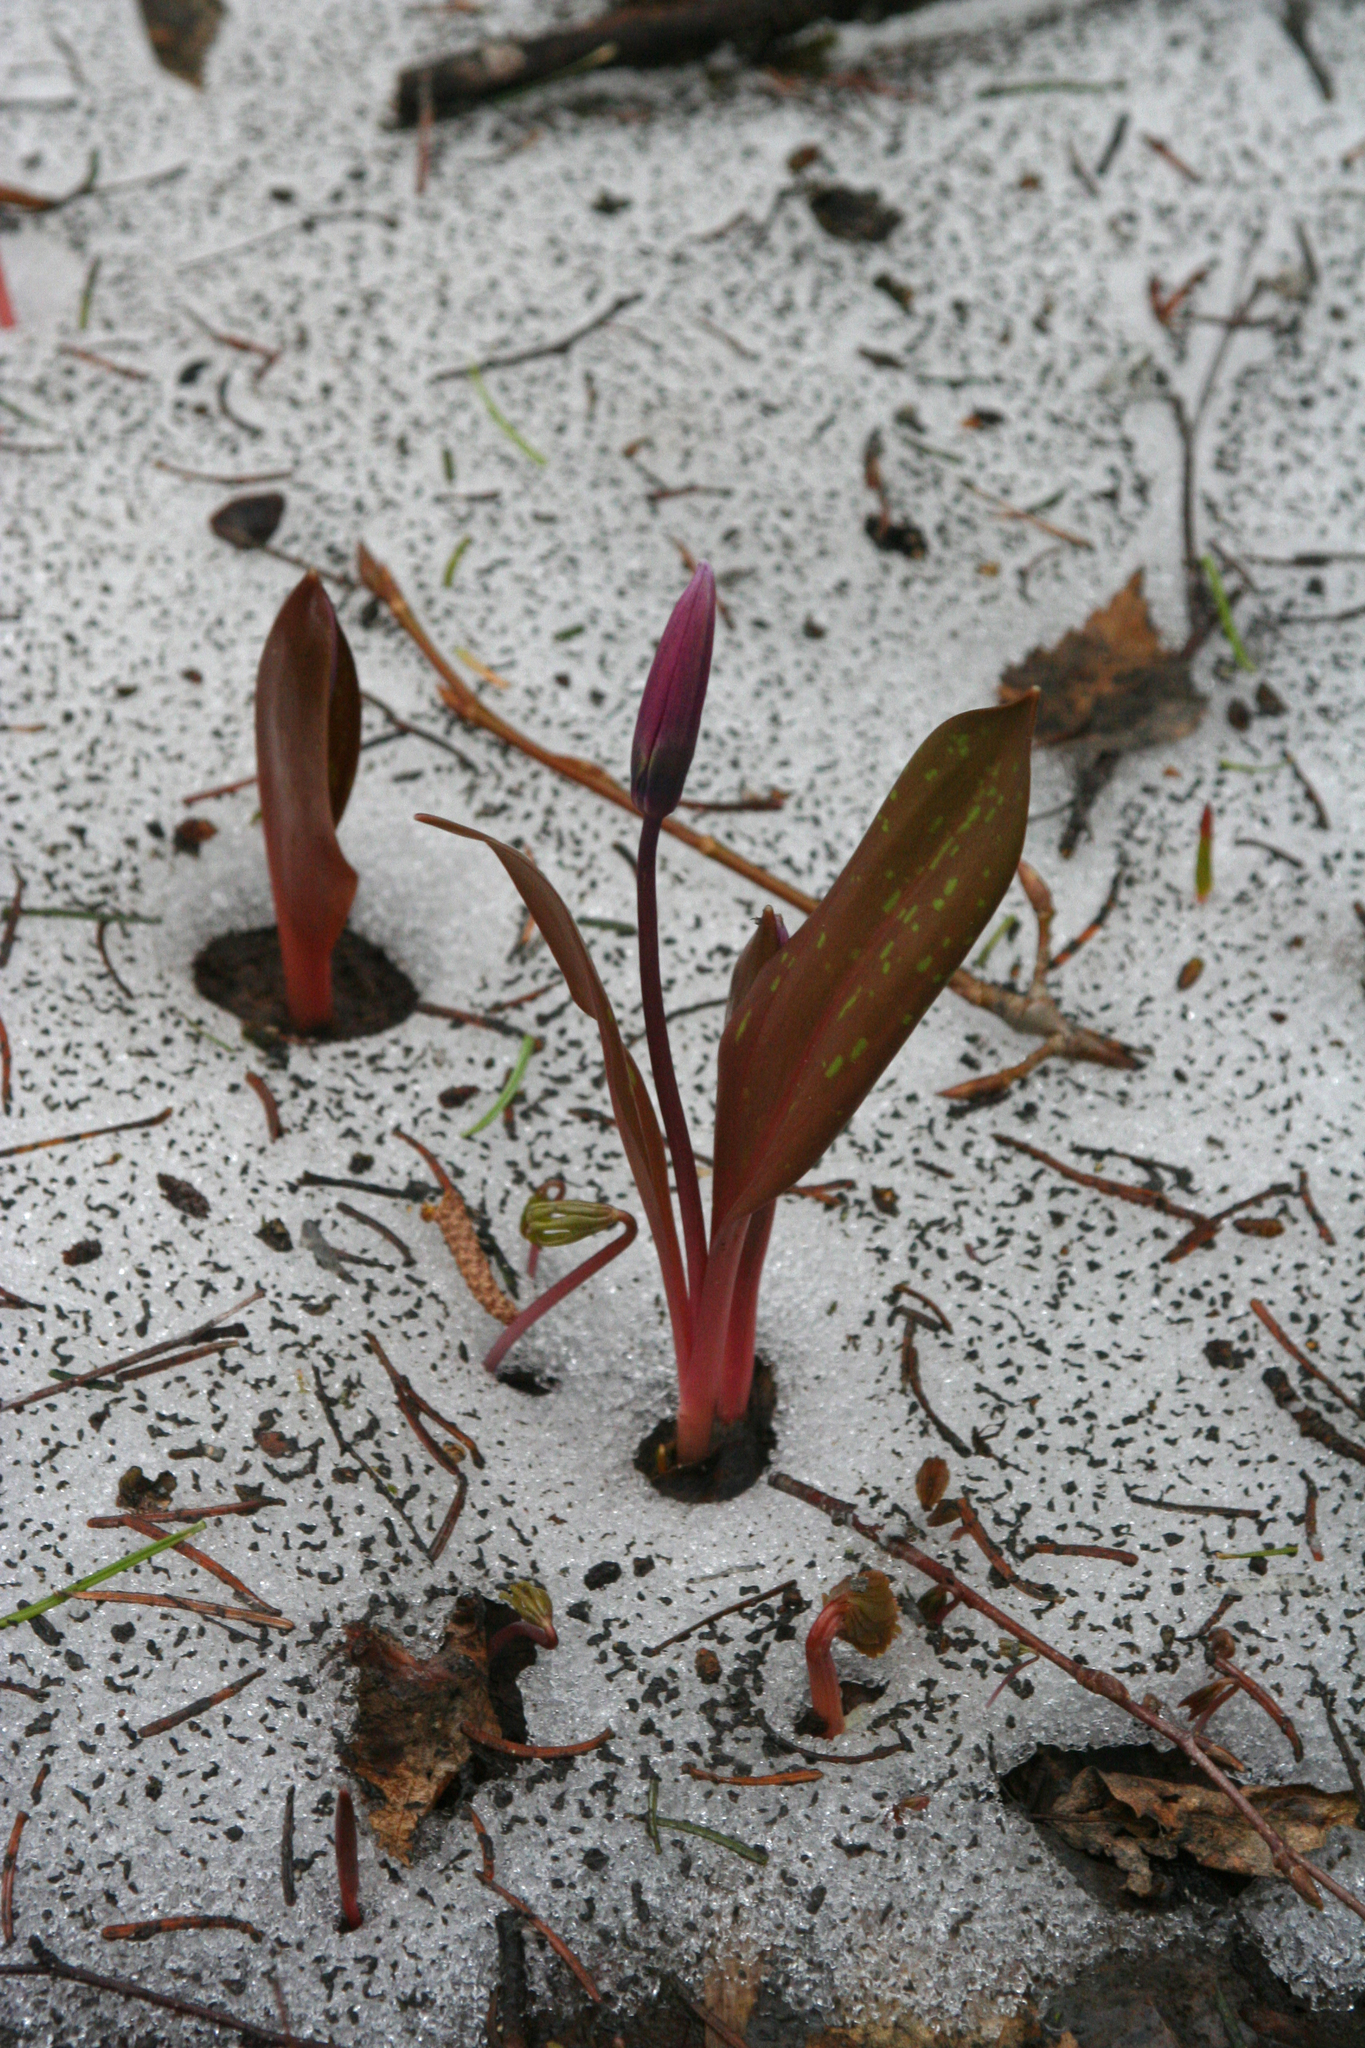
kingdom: Plantae
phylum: Tracheophyta
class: Liliopsida
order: Liliales
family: Liliaceae
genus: Erythronium
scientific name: Erythronium sibiricum
